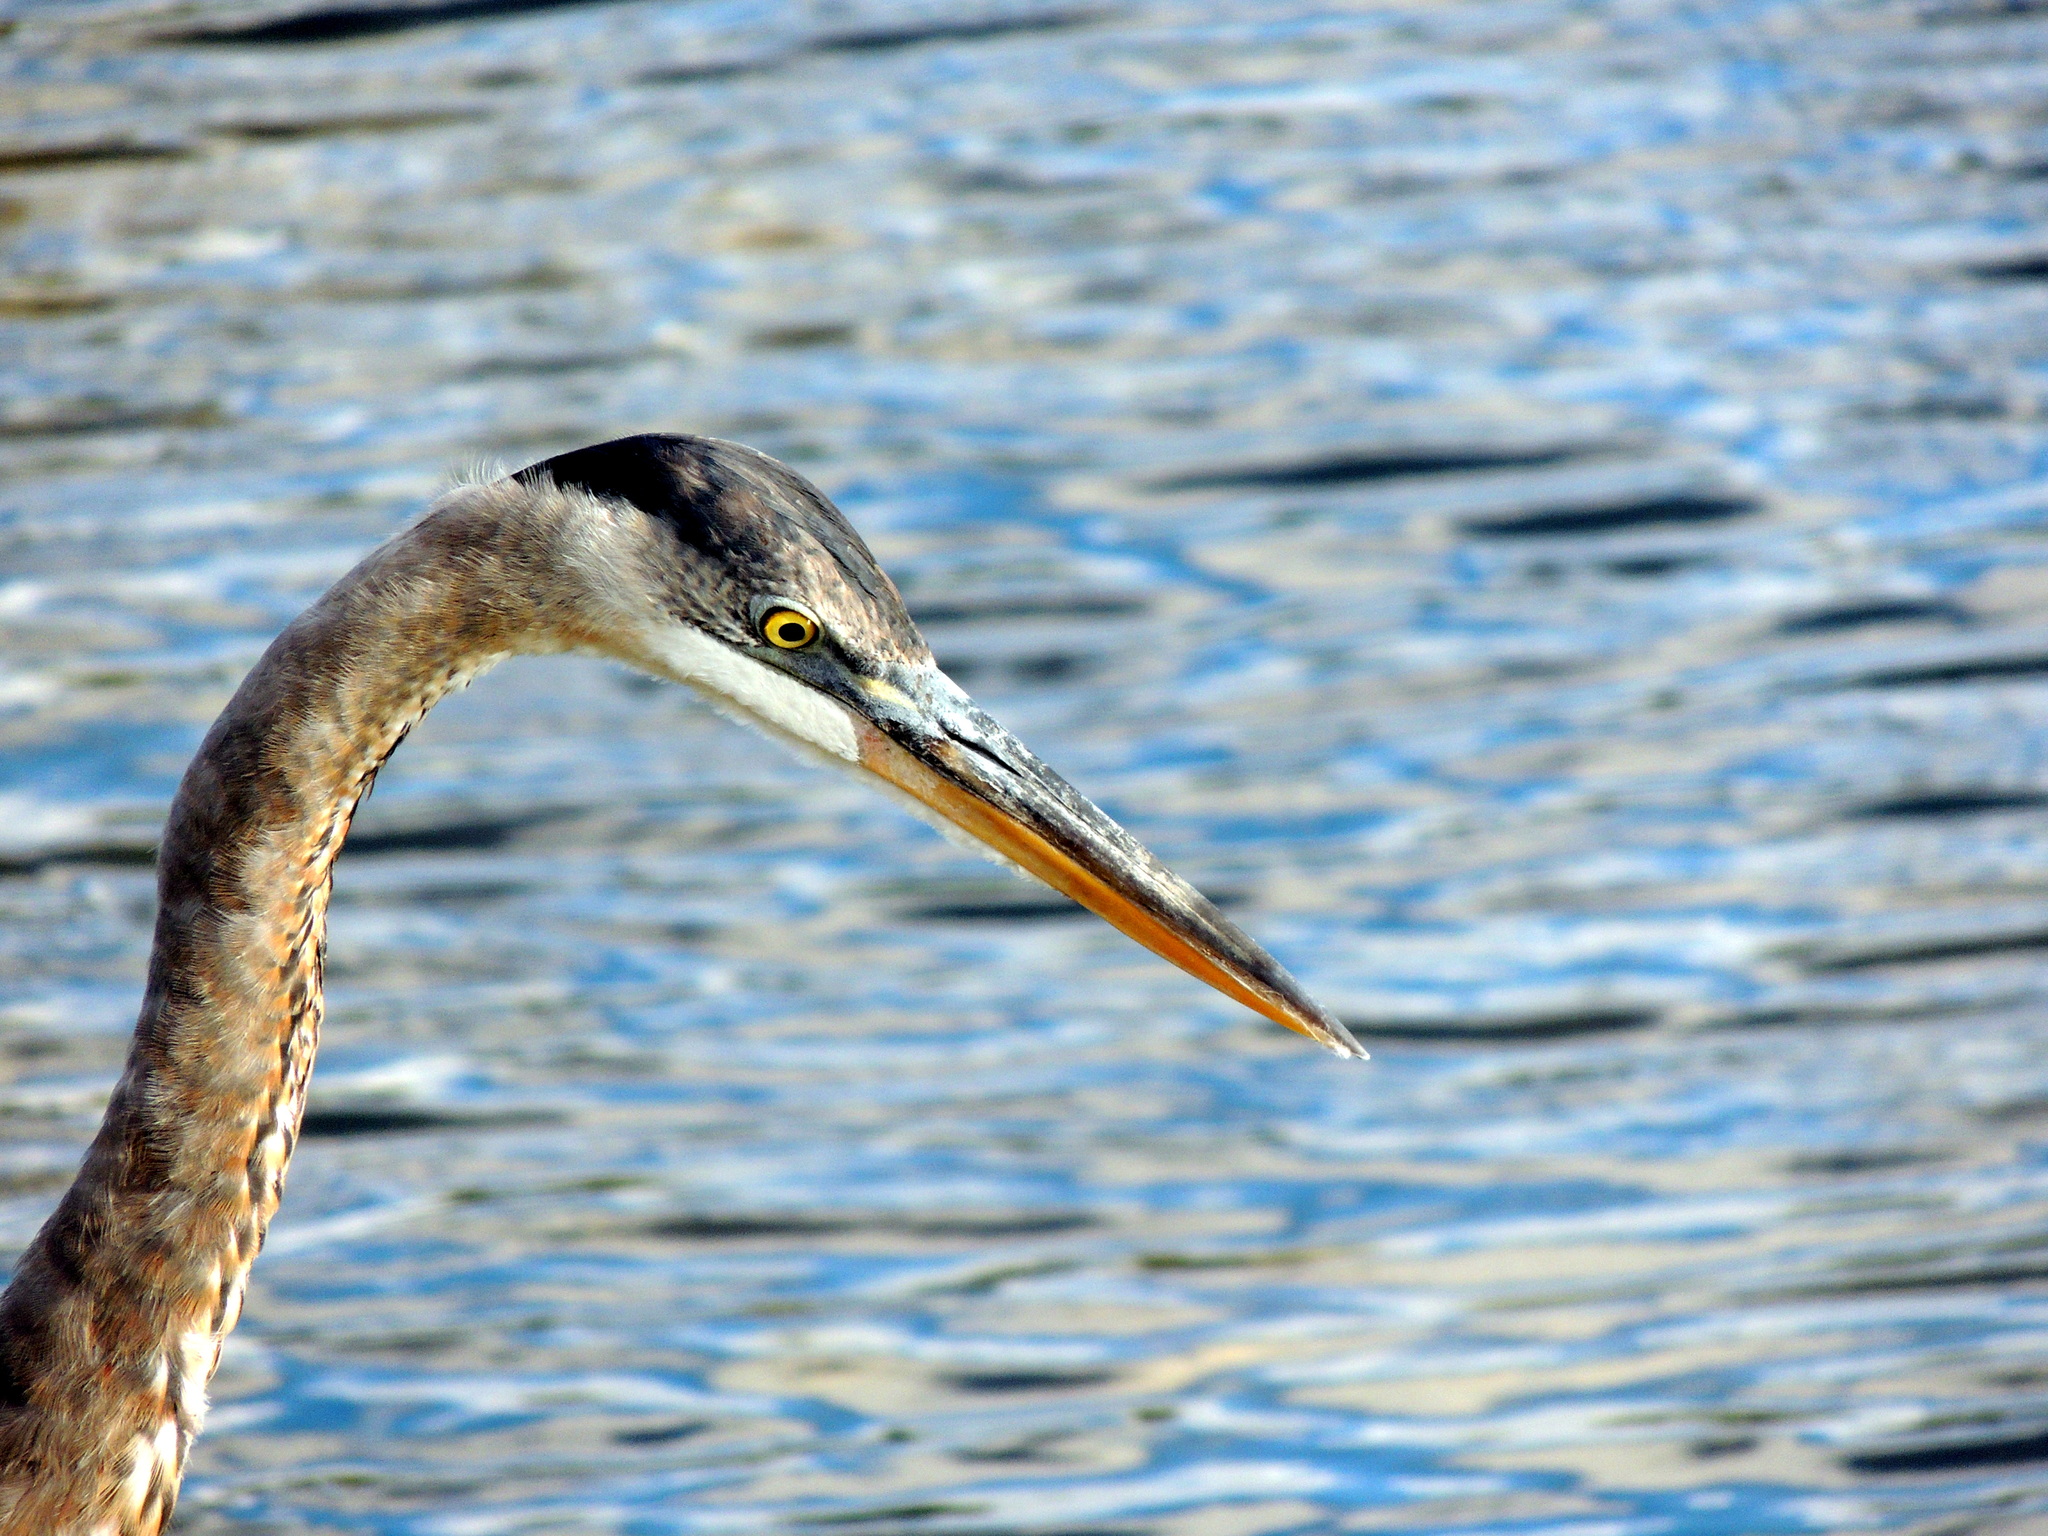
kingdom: Animalia
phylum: Chordata
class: Aves
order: Pelecaniformes
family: Ardeidae
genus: Ardea
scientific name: Ardea herodias
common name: Great blue heron
